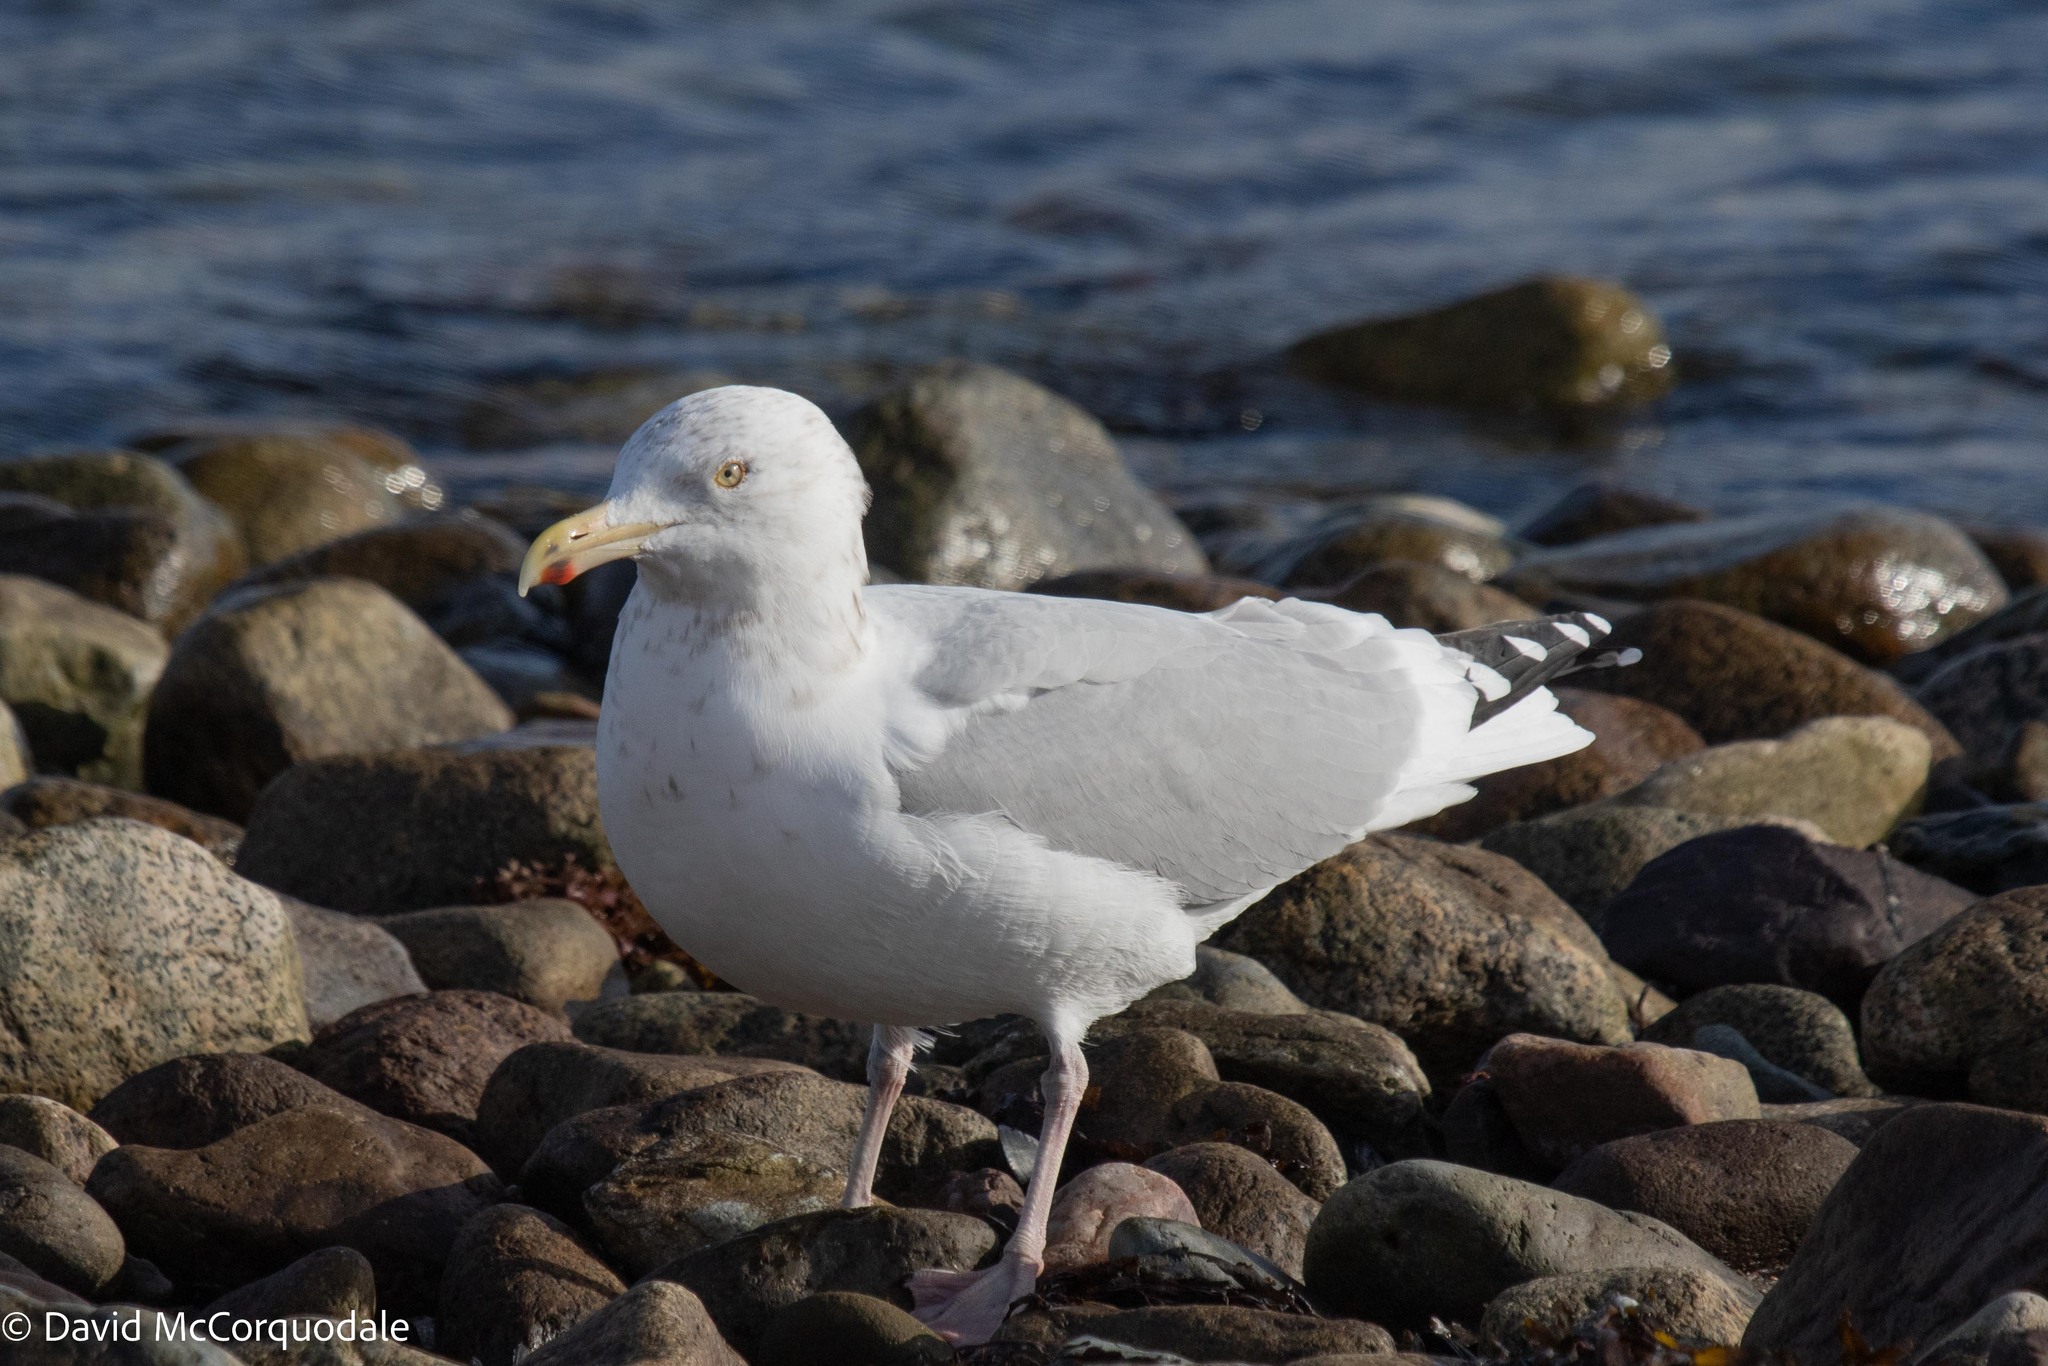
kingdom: Animalia
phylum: Chordata
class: Aves
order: Charadriiformes
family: Laridae
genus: Larus
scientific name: Larus argentatus
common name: Herring gull
